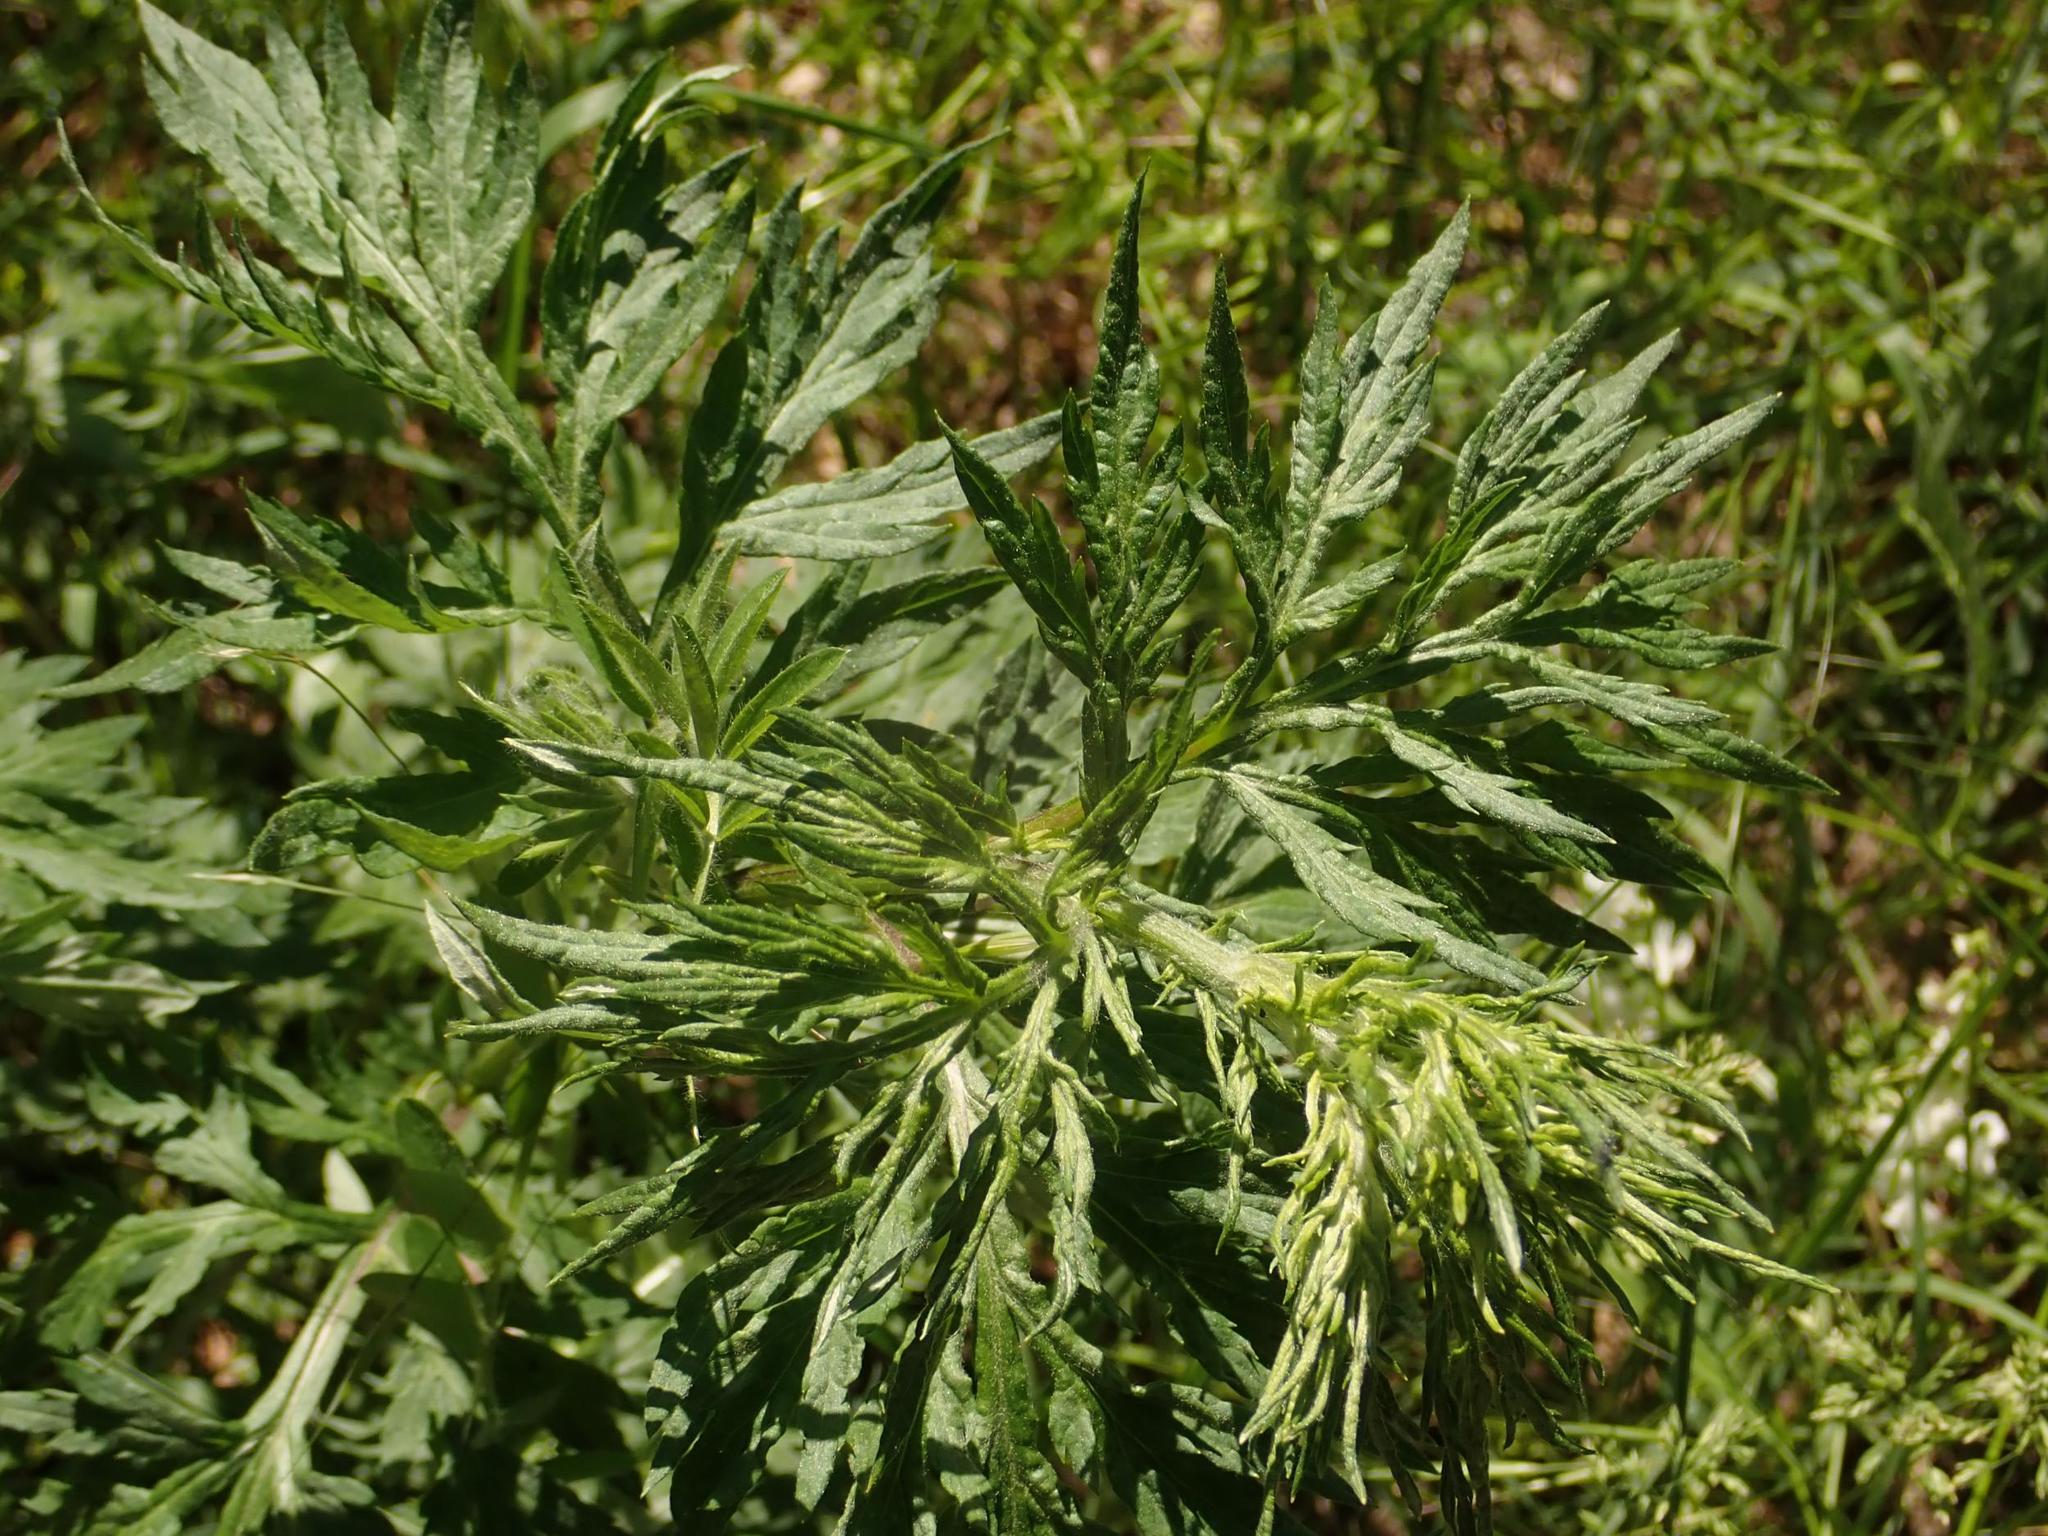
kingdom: Plantae
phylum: Tracheophyta
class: Magnoliopsida
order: Asterales
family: Asteraceae
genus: Artemisia
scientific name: Artemisia vulgaris
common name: Mugwort
